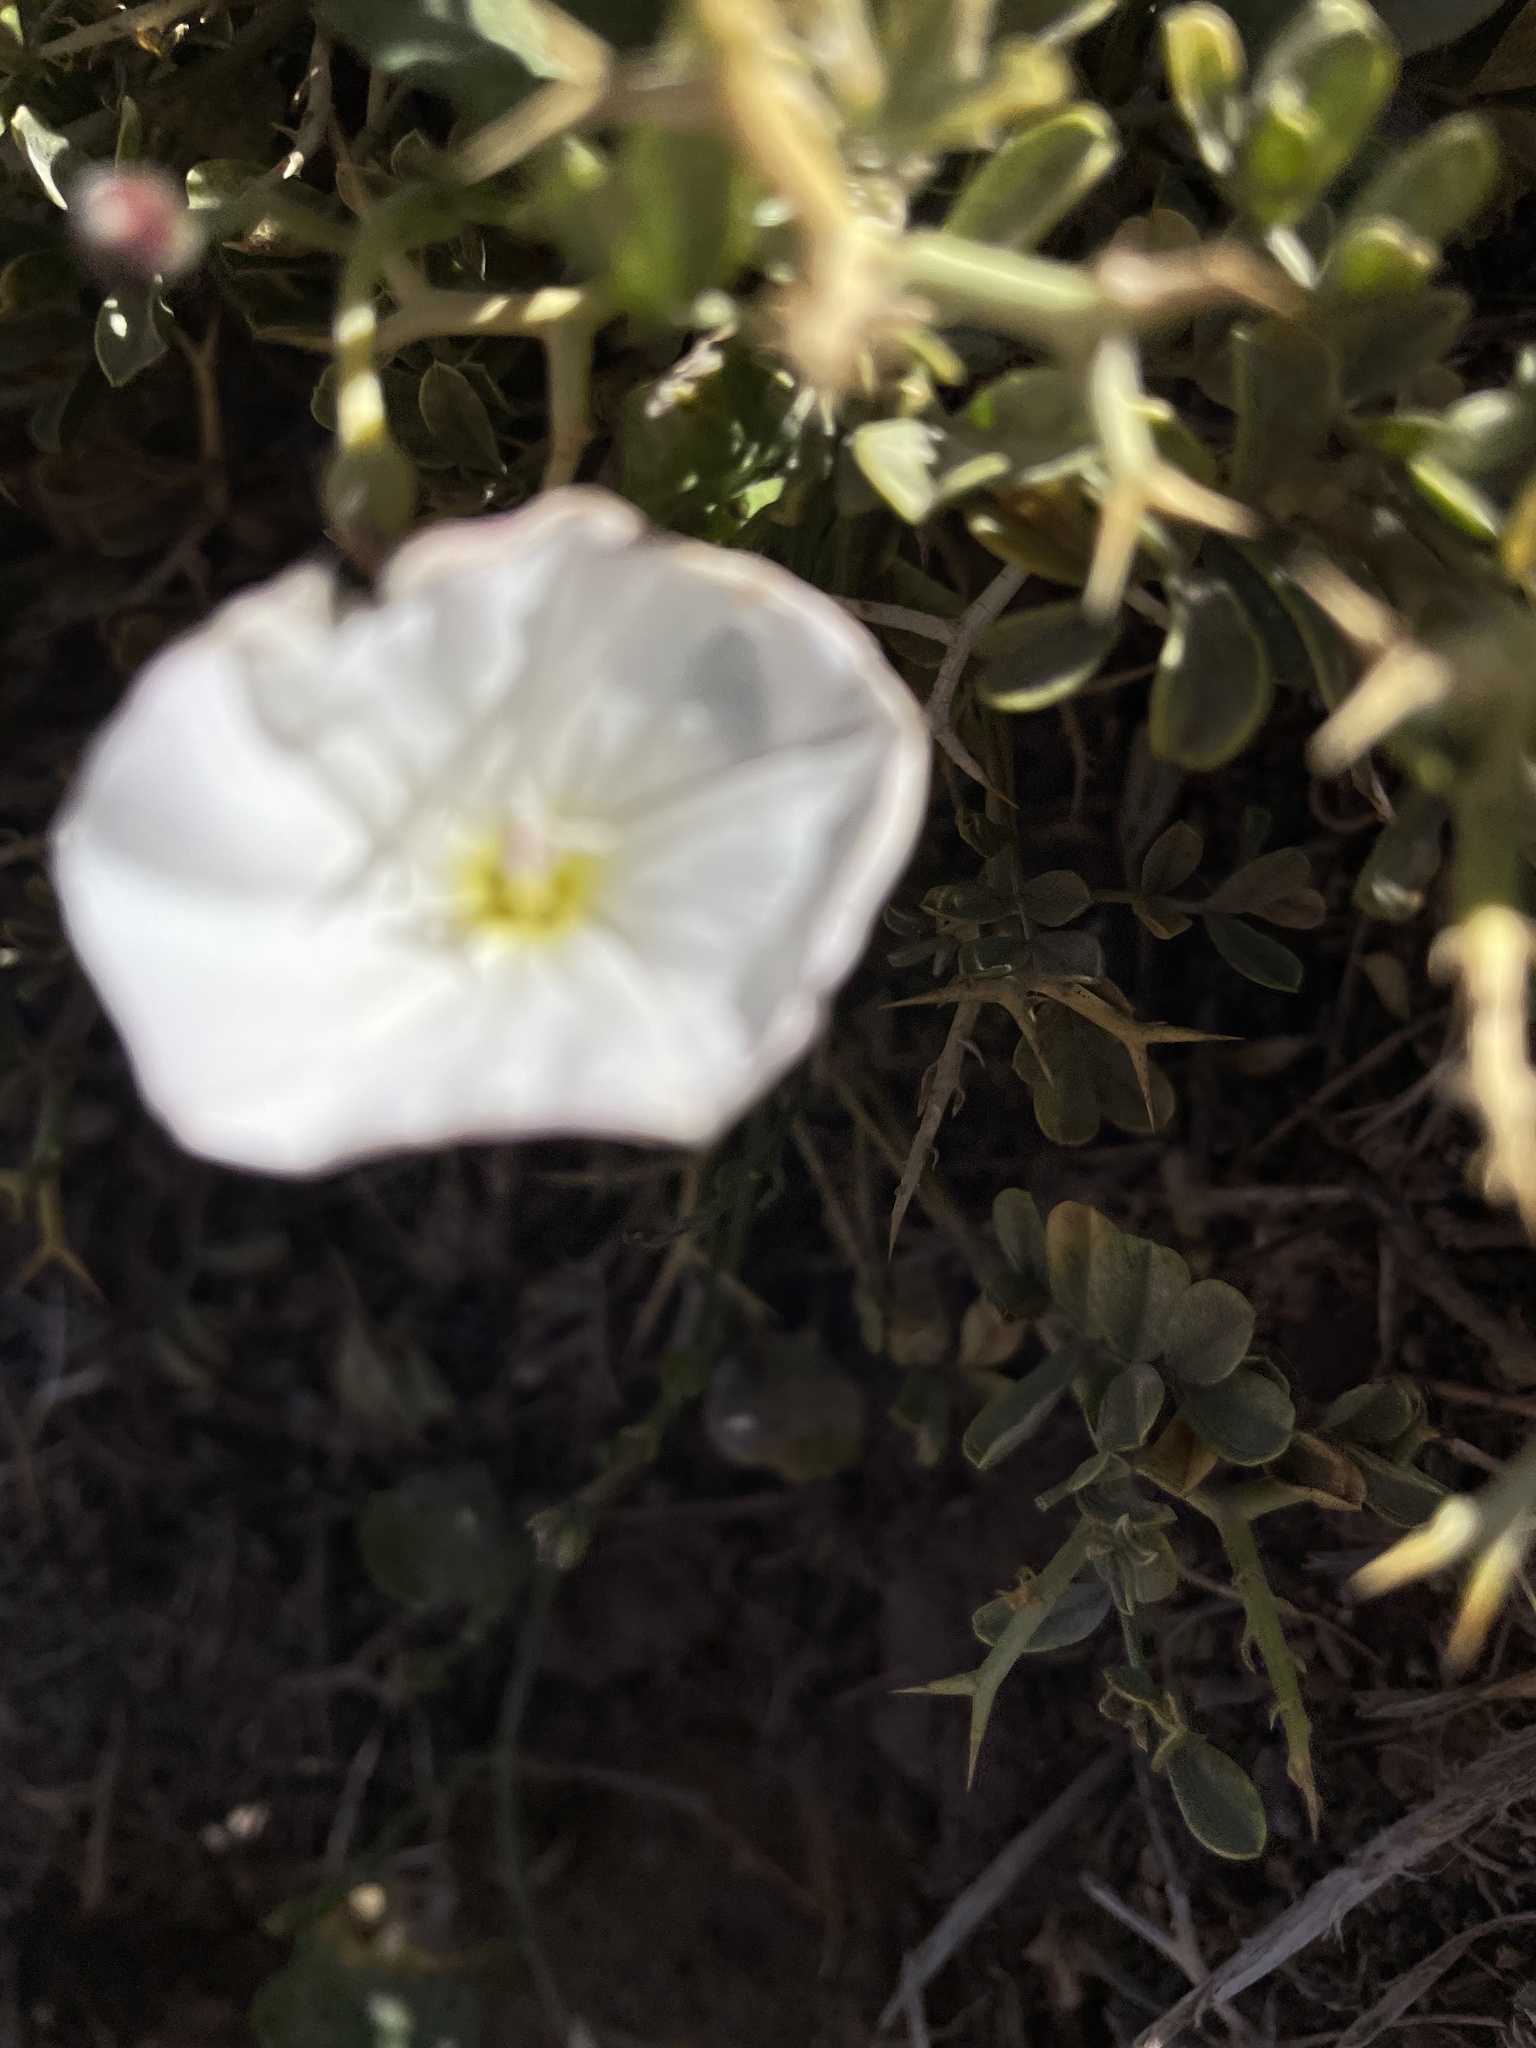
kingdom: Plantae
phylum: Tracheophyta
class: Magnoliopsida
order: Solanales
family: Convolvulaceae
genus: Convolvulus
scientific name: Convolvulus arvensis
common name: Field bindweed
